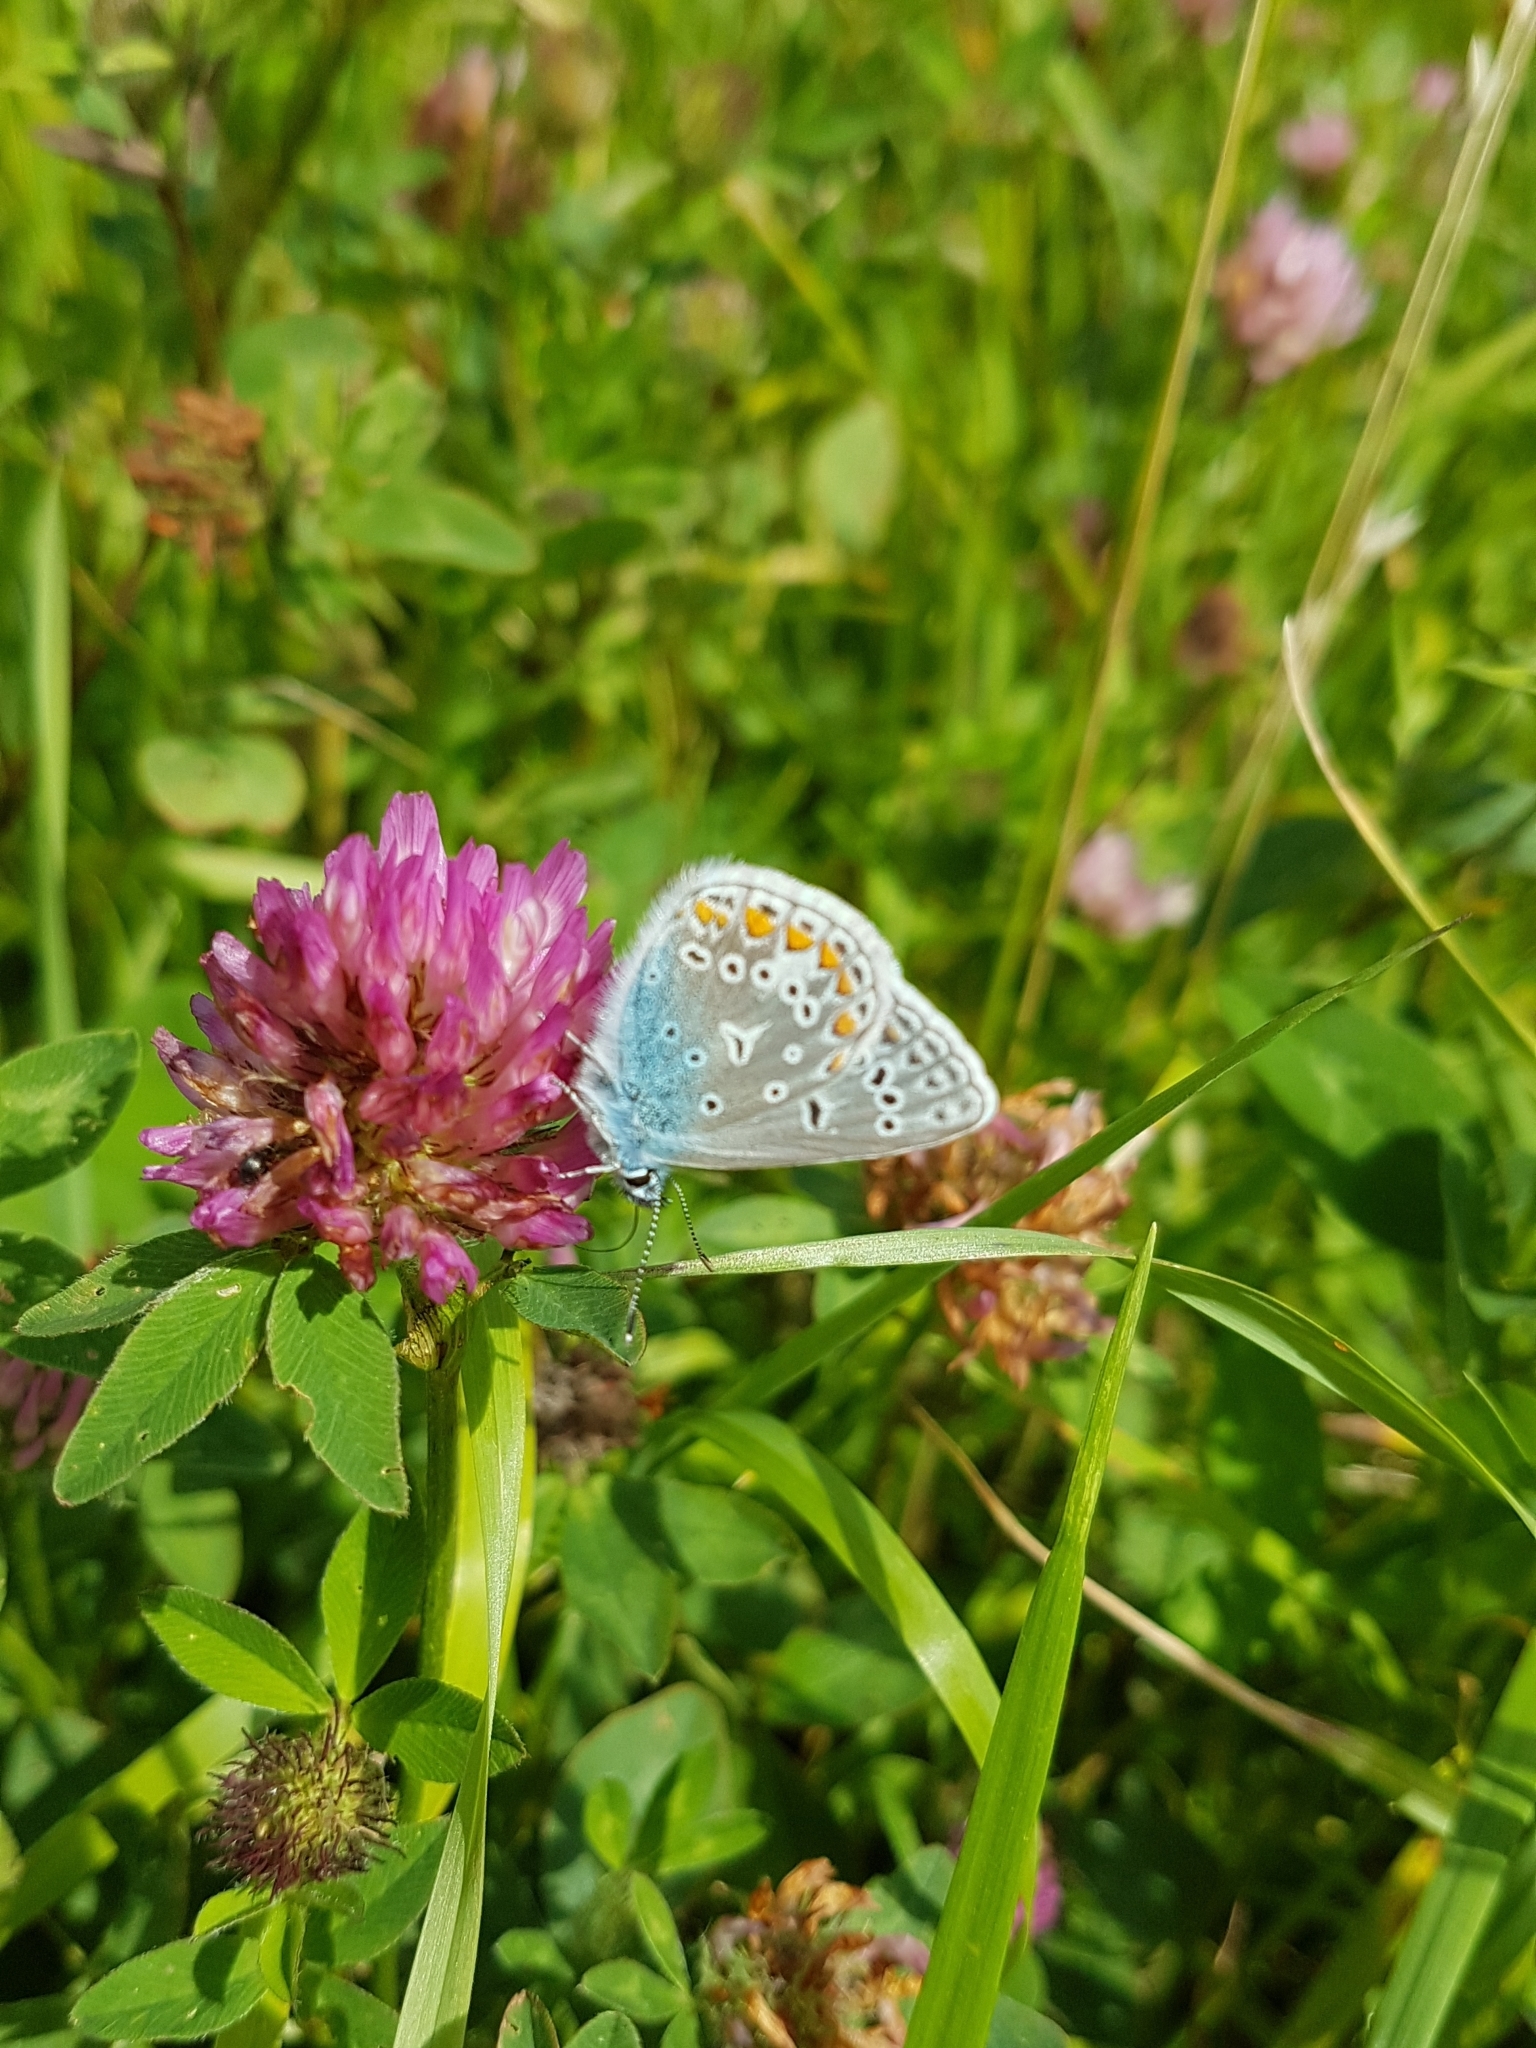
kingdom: Animalia
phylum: Arthropoda
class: Insecta
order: Lepidoptera
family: Lycaenidae
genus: Polyommatus
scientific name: Polyommatus icarus
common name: Common blue
